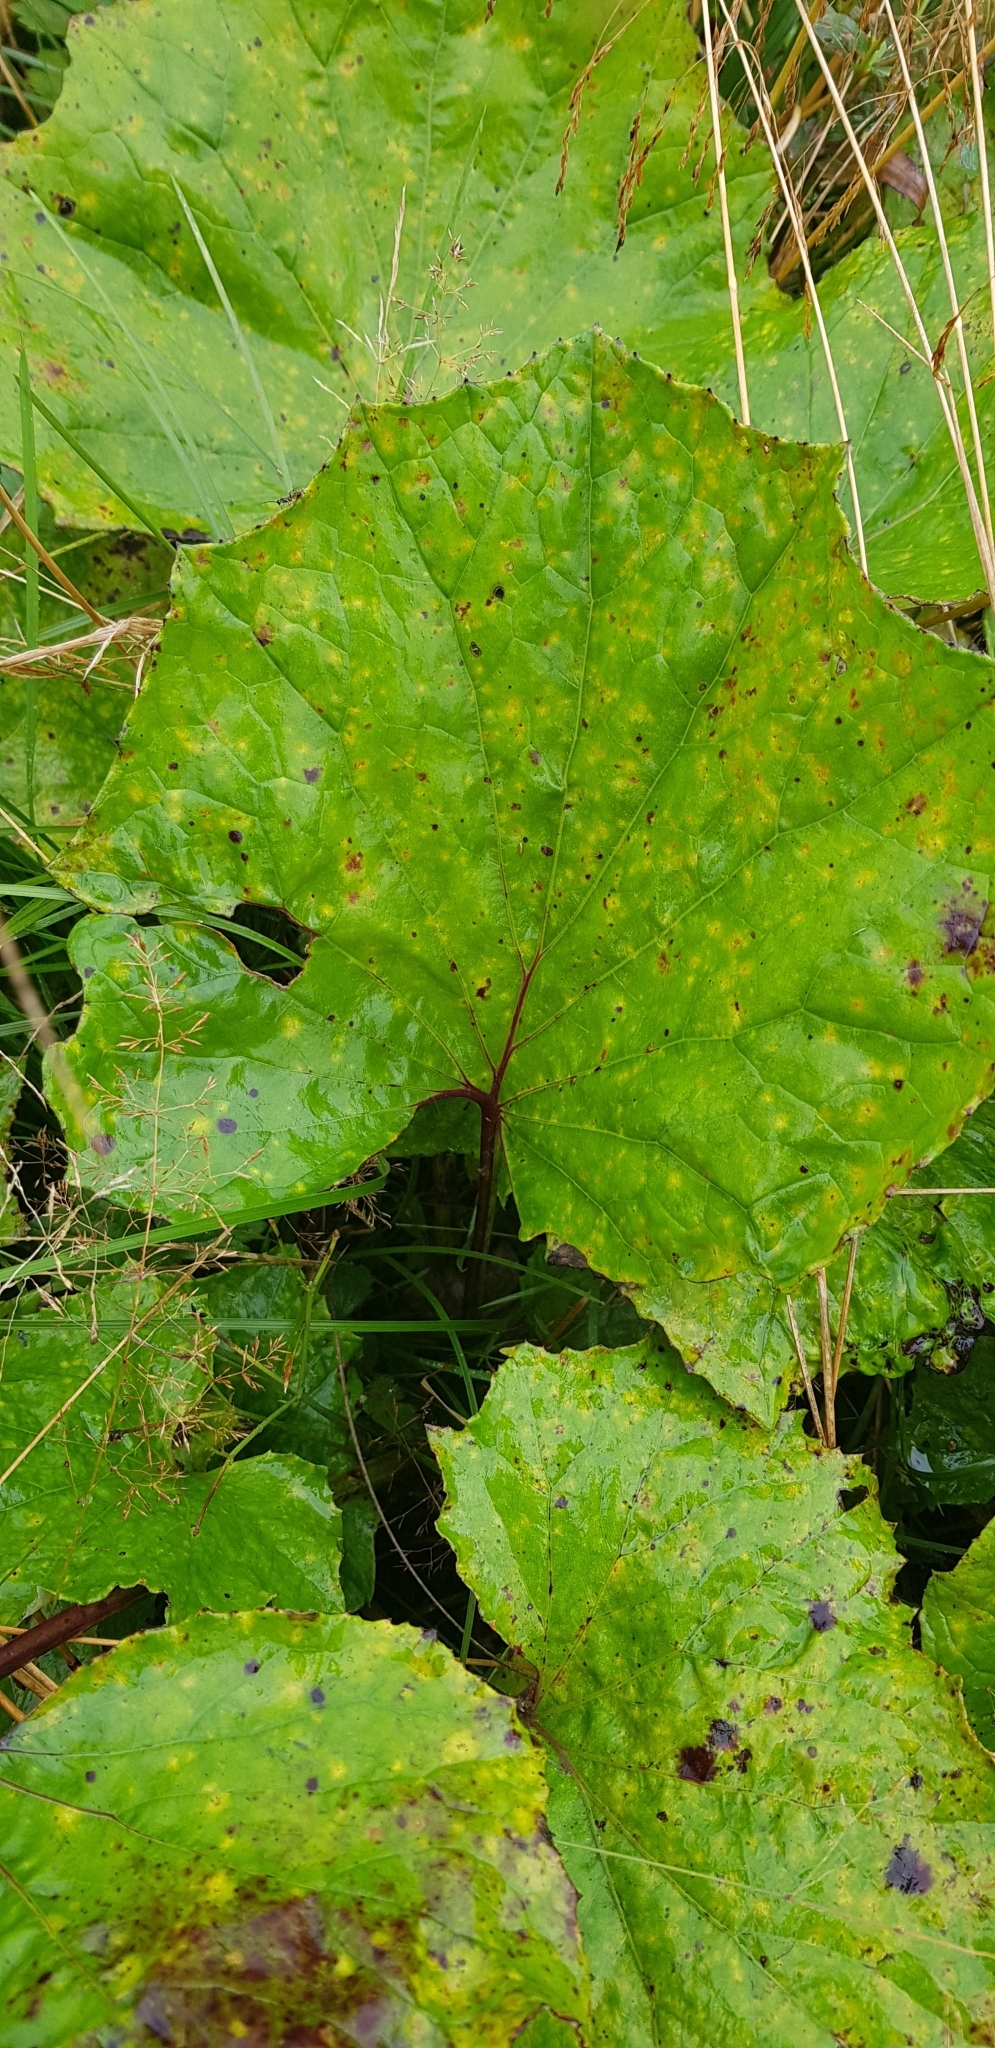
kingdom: Plantae
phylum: Tracheophyta
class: Magnoliopsida
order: Asterales
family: Asteraceae
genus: Tussilago
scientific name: Tussilago farfara
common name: Coltsfoot
